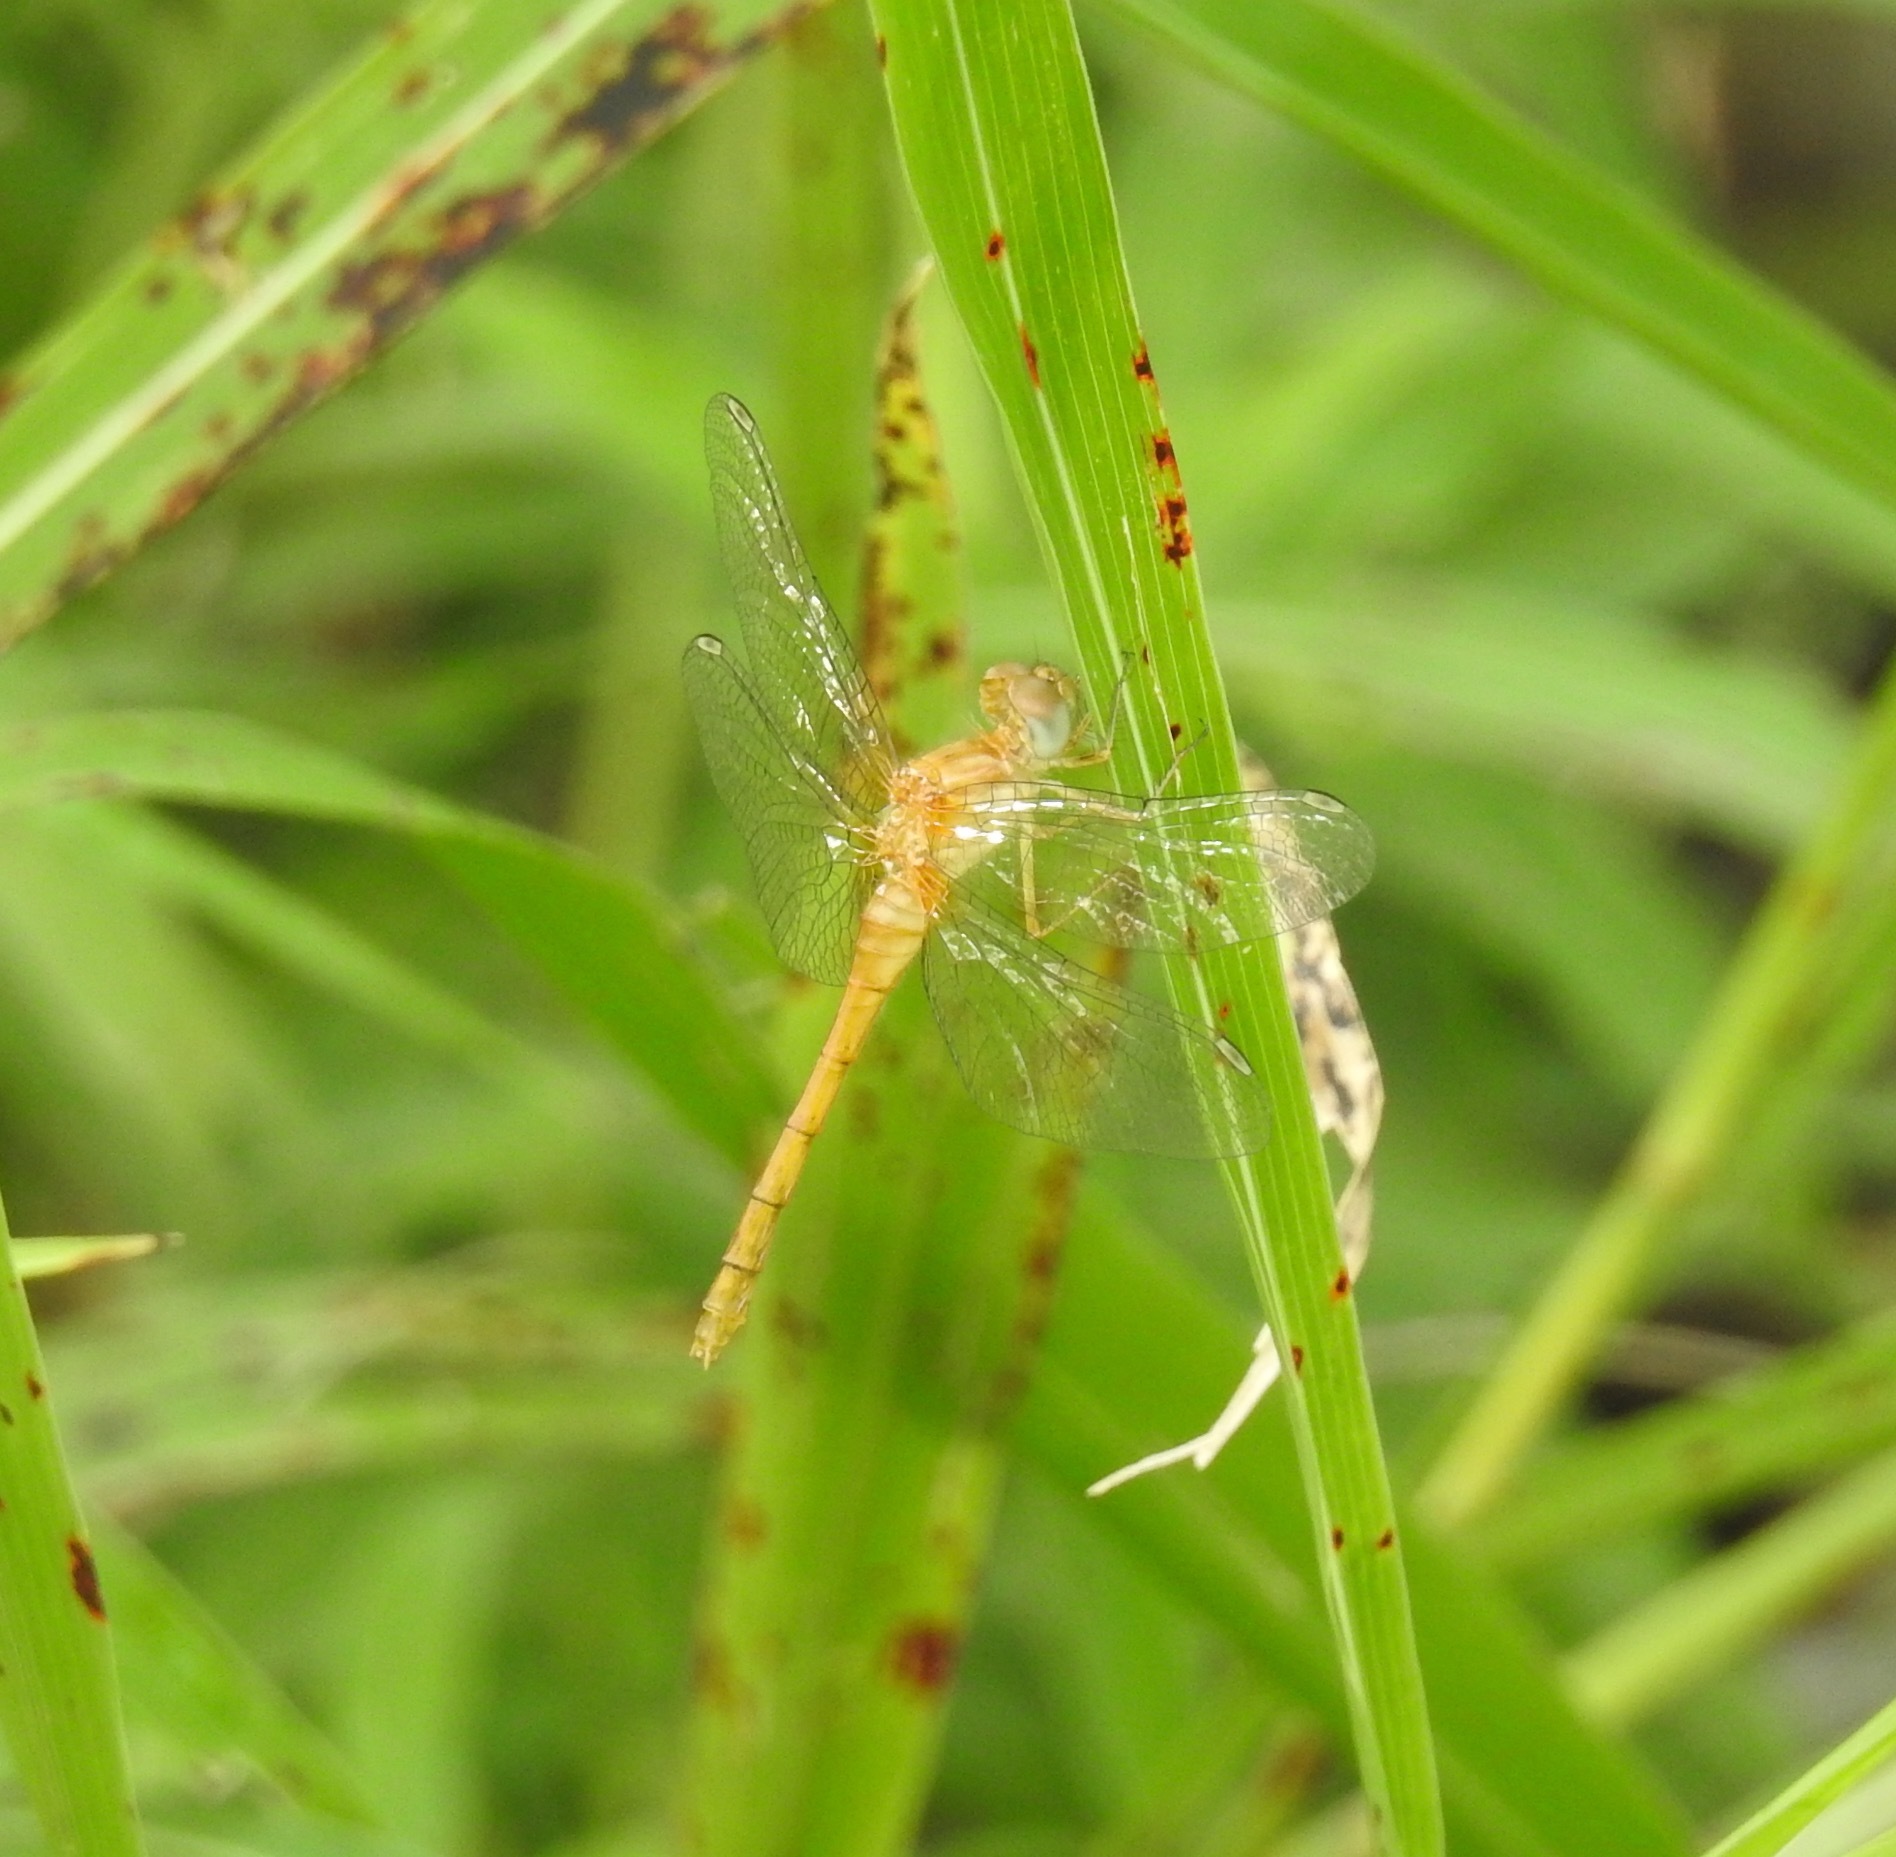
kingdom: Animalia
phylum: Arthropoda
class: Insecta
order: Odonata
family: Libellulidae
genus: Sympetrum
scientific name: Sympetrum vicinum
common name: Autumn meadowhawk
